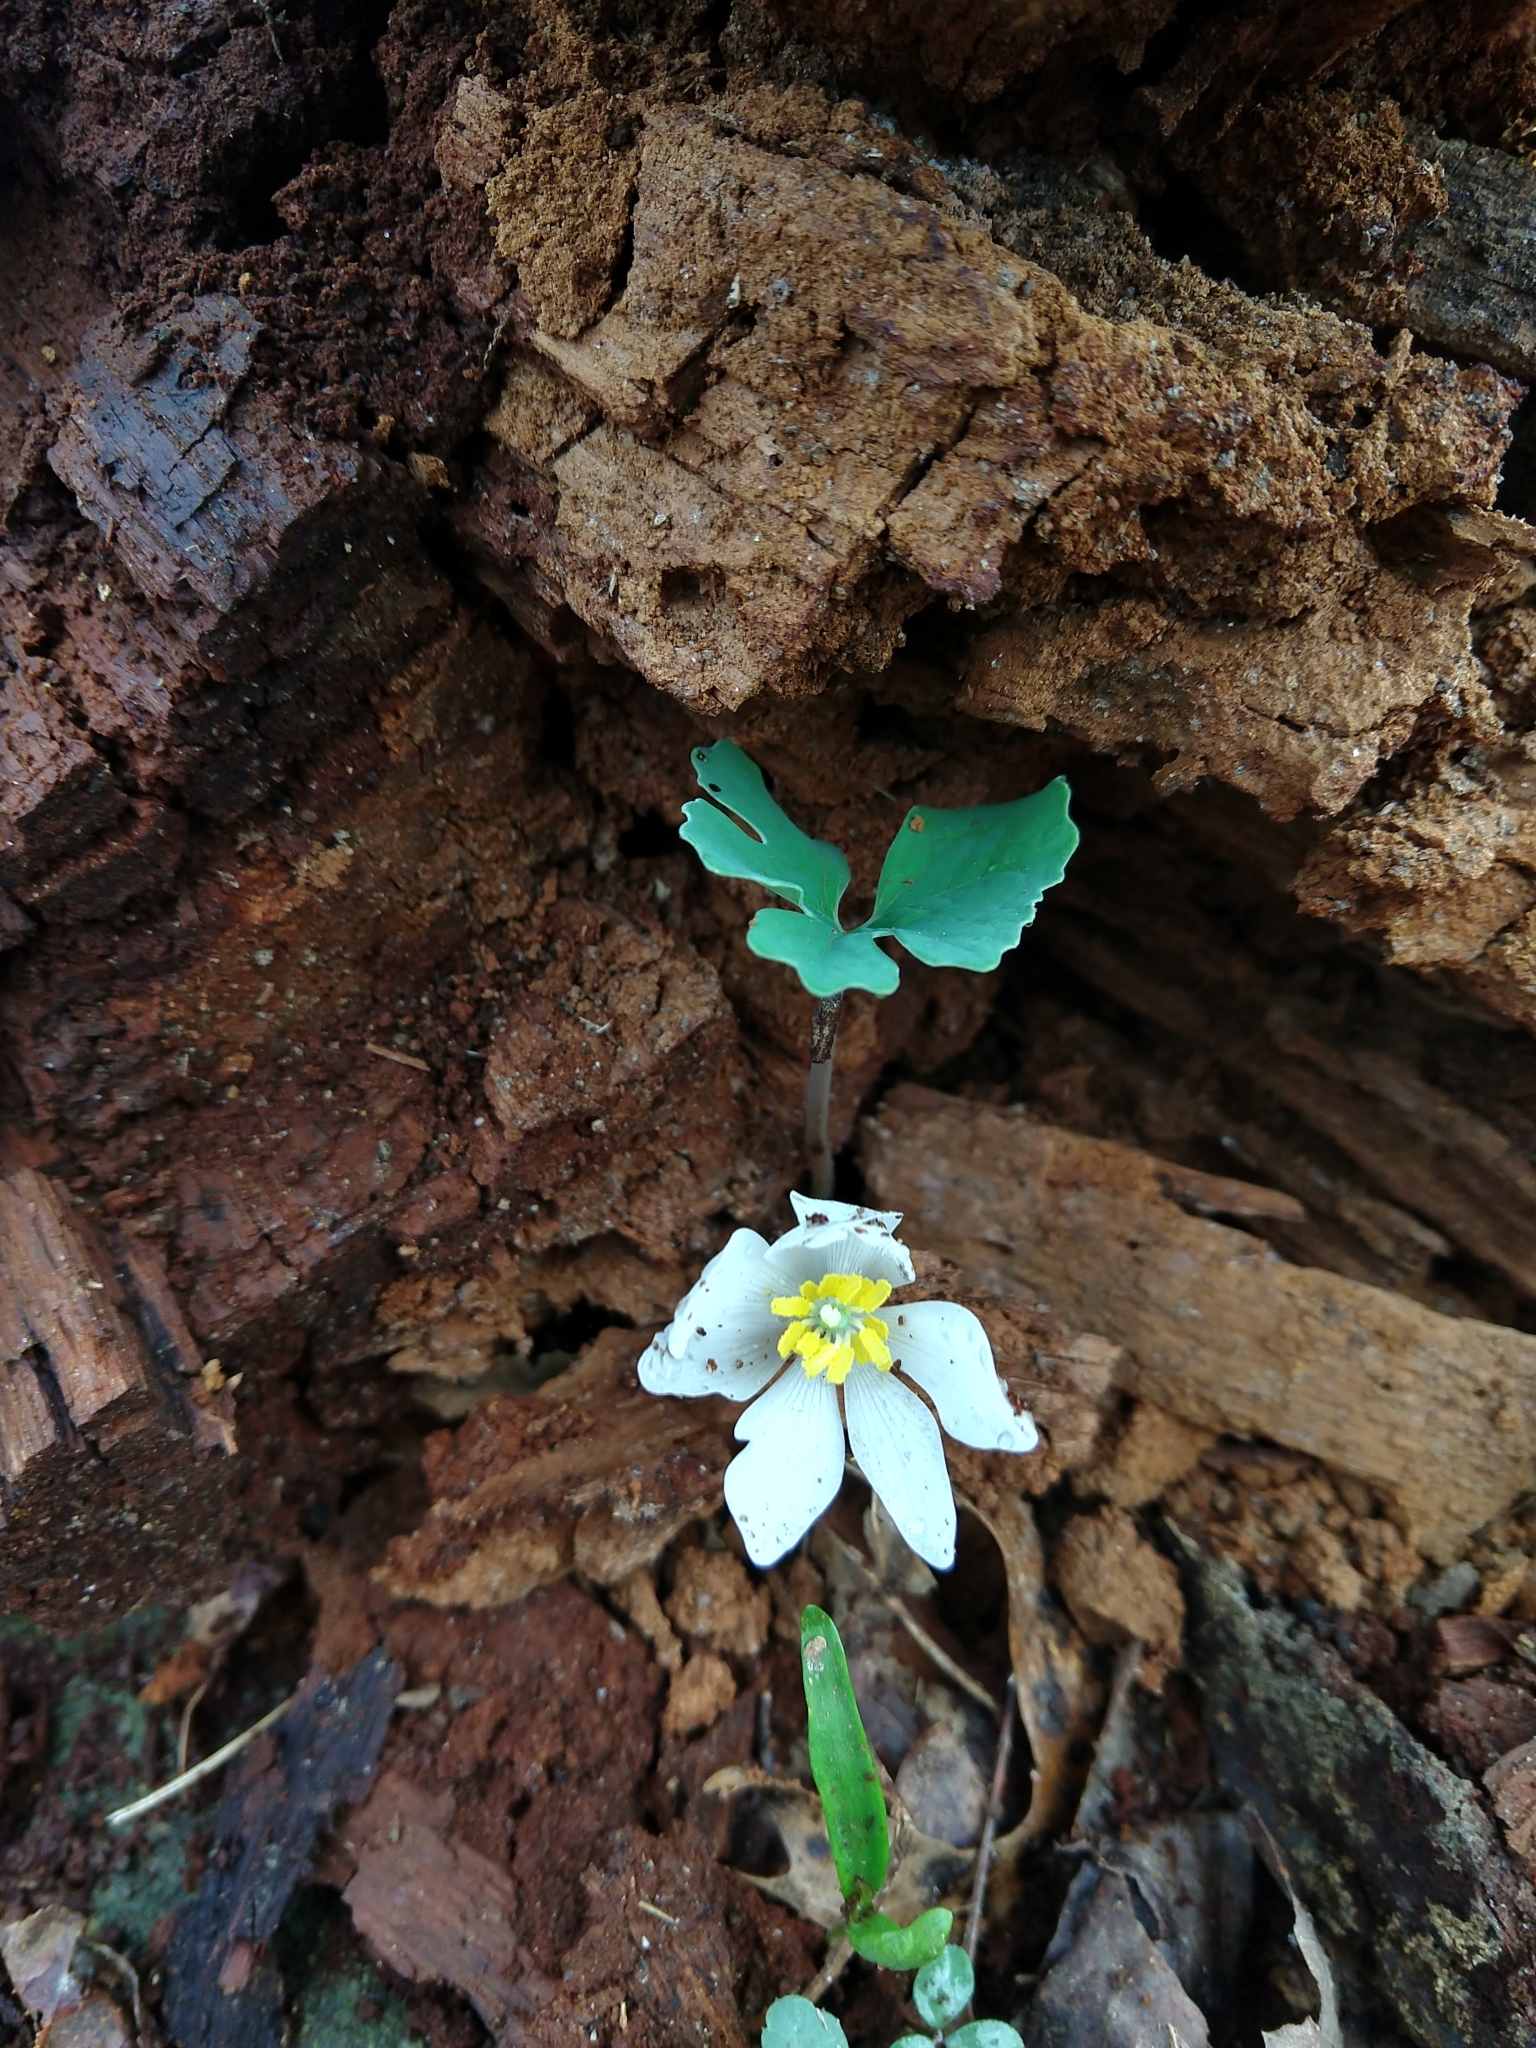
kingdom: Plantae
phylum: Tracheophyta
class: Magnoliopsida
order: Ranunculales
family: Papaveraceae
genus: Sanguinaria
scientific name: Sanguinaria canadensis
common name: Bloodroot
